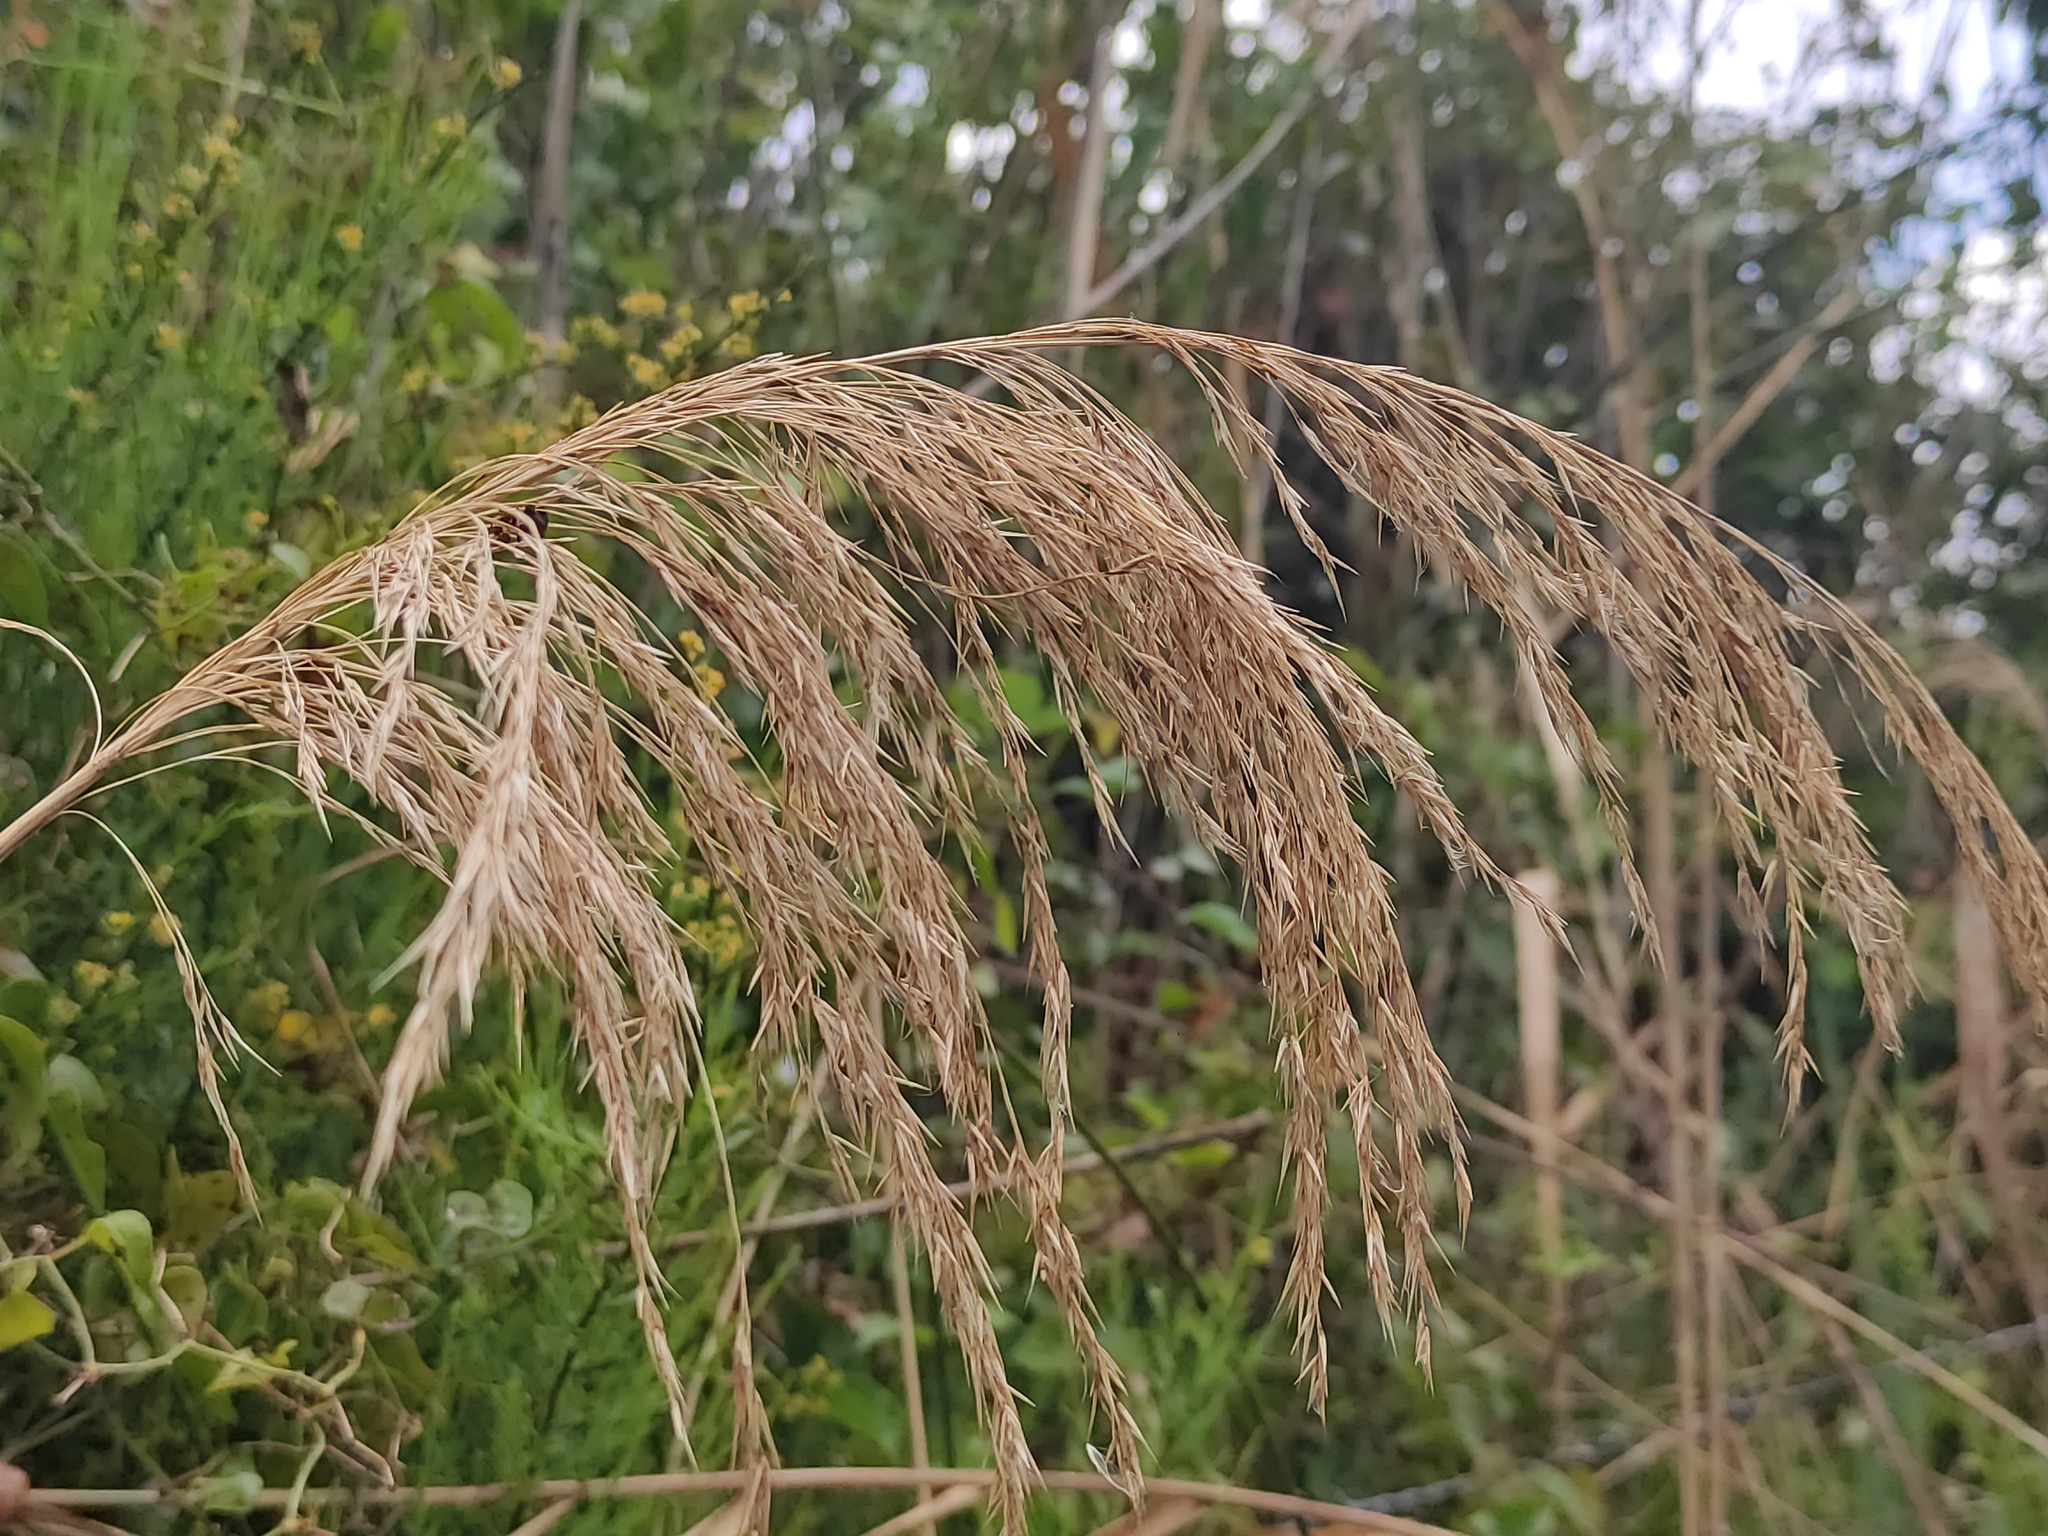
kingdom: Plantae
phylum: Tracheophyta
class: Liliopsida
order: Poales
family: Poaceae
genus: Phragmites
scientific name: Phragmites australis
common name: Common reed
